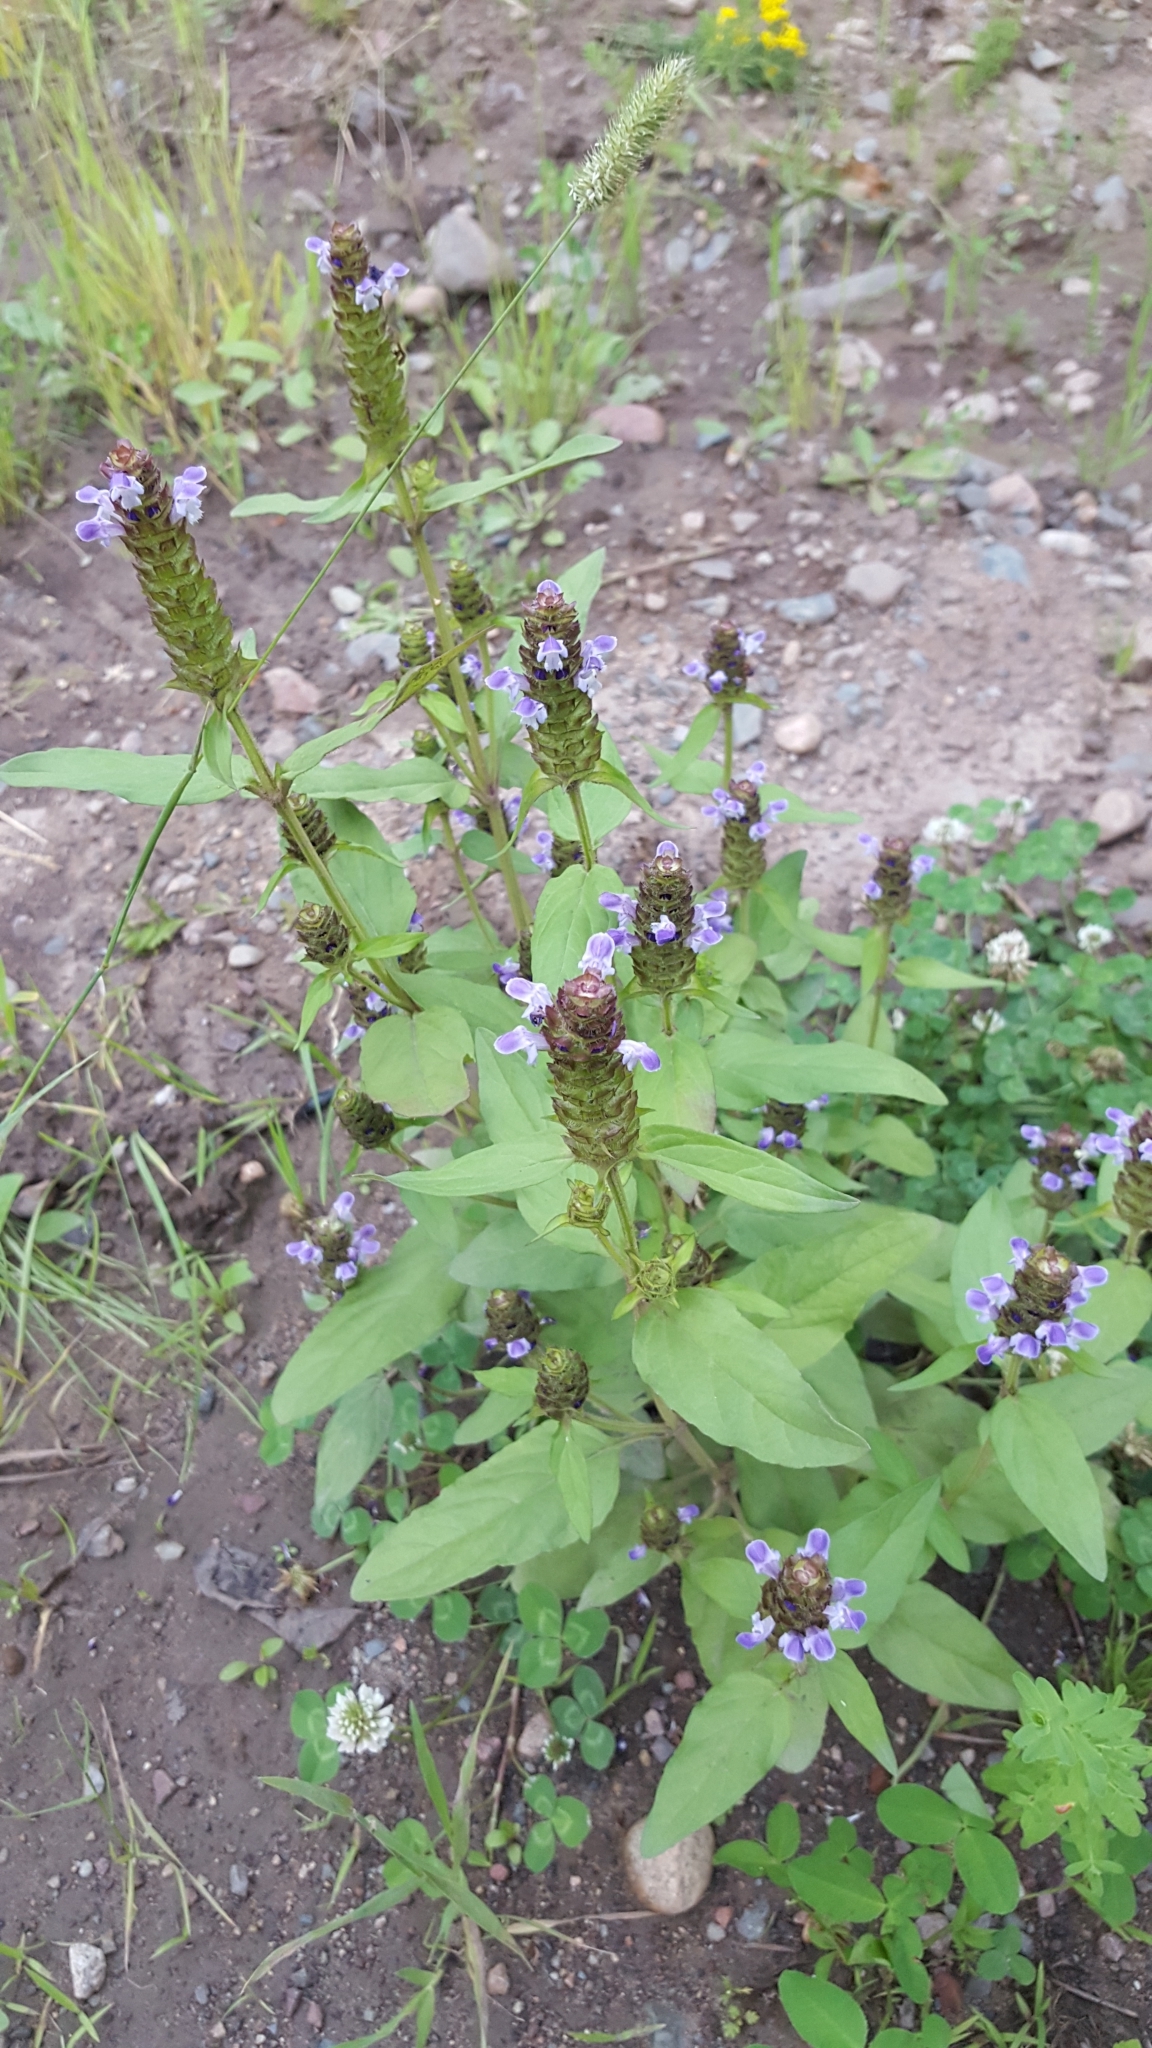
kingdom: Plantae
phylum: Tracheophyta
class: Magnoliopsida
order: Lamiales
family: Lamiaceae
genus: Prunella
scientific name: Prunella vulgaris
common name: Heal-all
